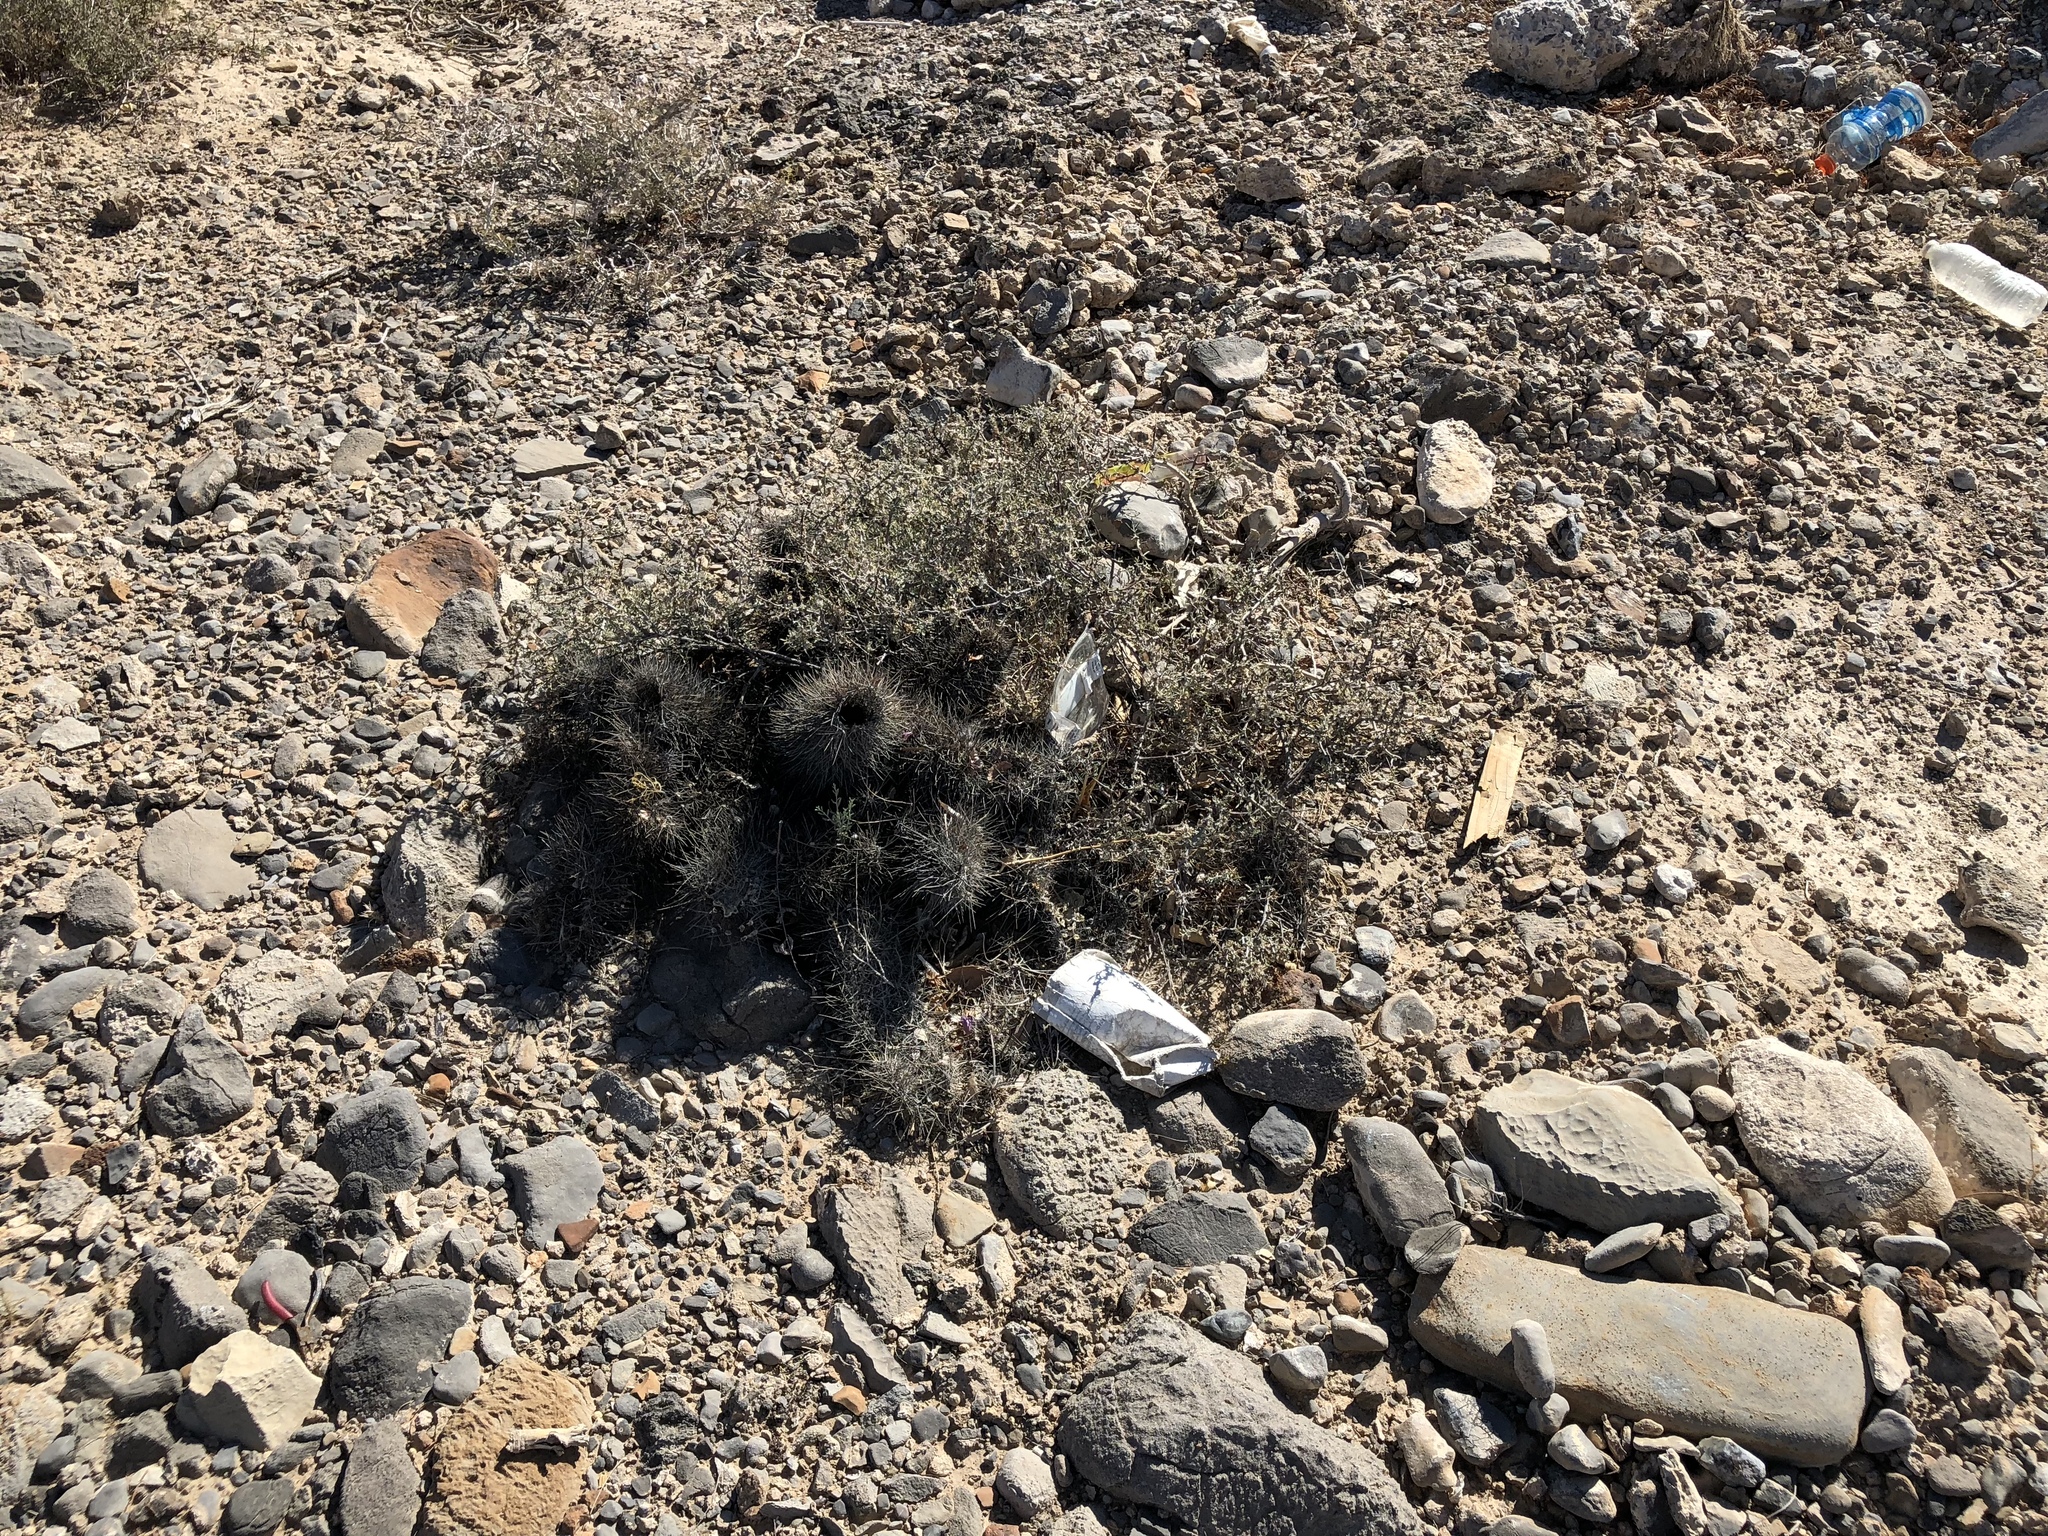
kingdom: Plantae
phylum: Tracheophyta
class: Magnoliopsida
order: Caryophyllales
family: Cactaceae
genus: Echinocereus
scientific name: Echinocereus engelmannii
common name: Engelmann's hedgehog cactus
